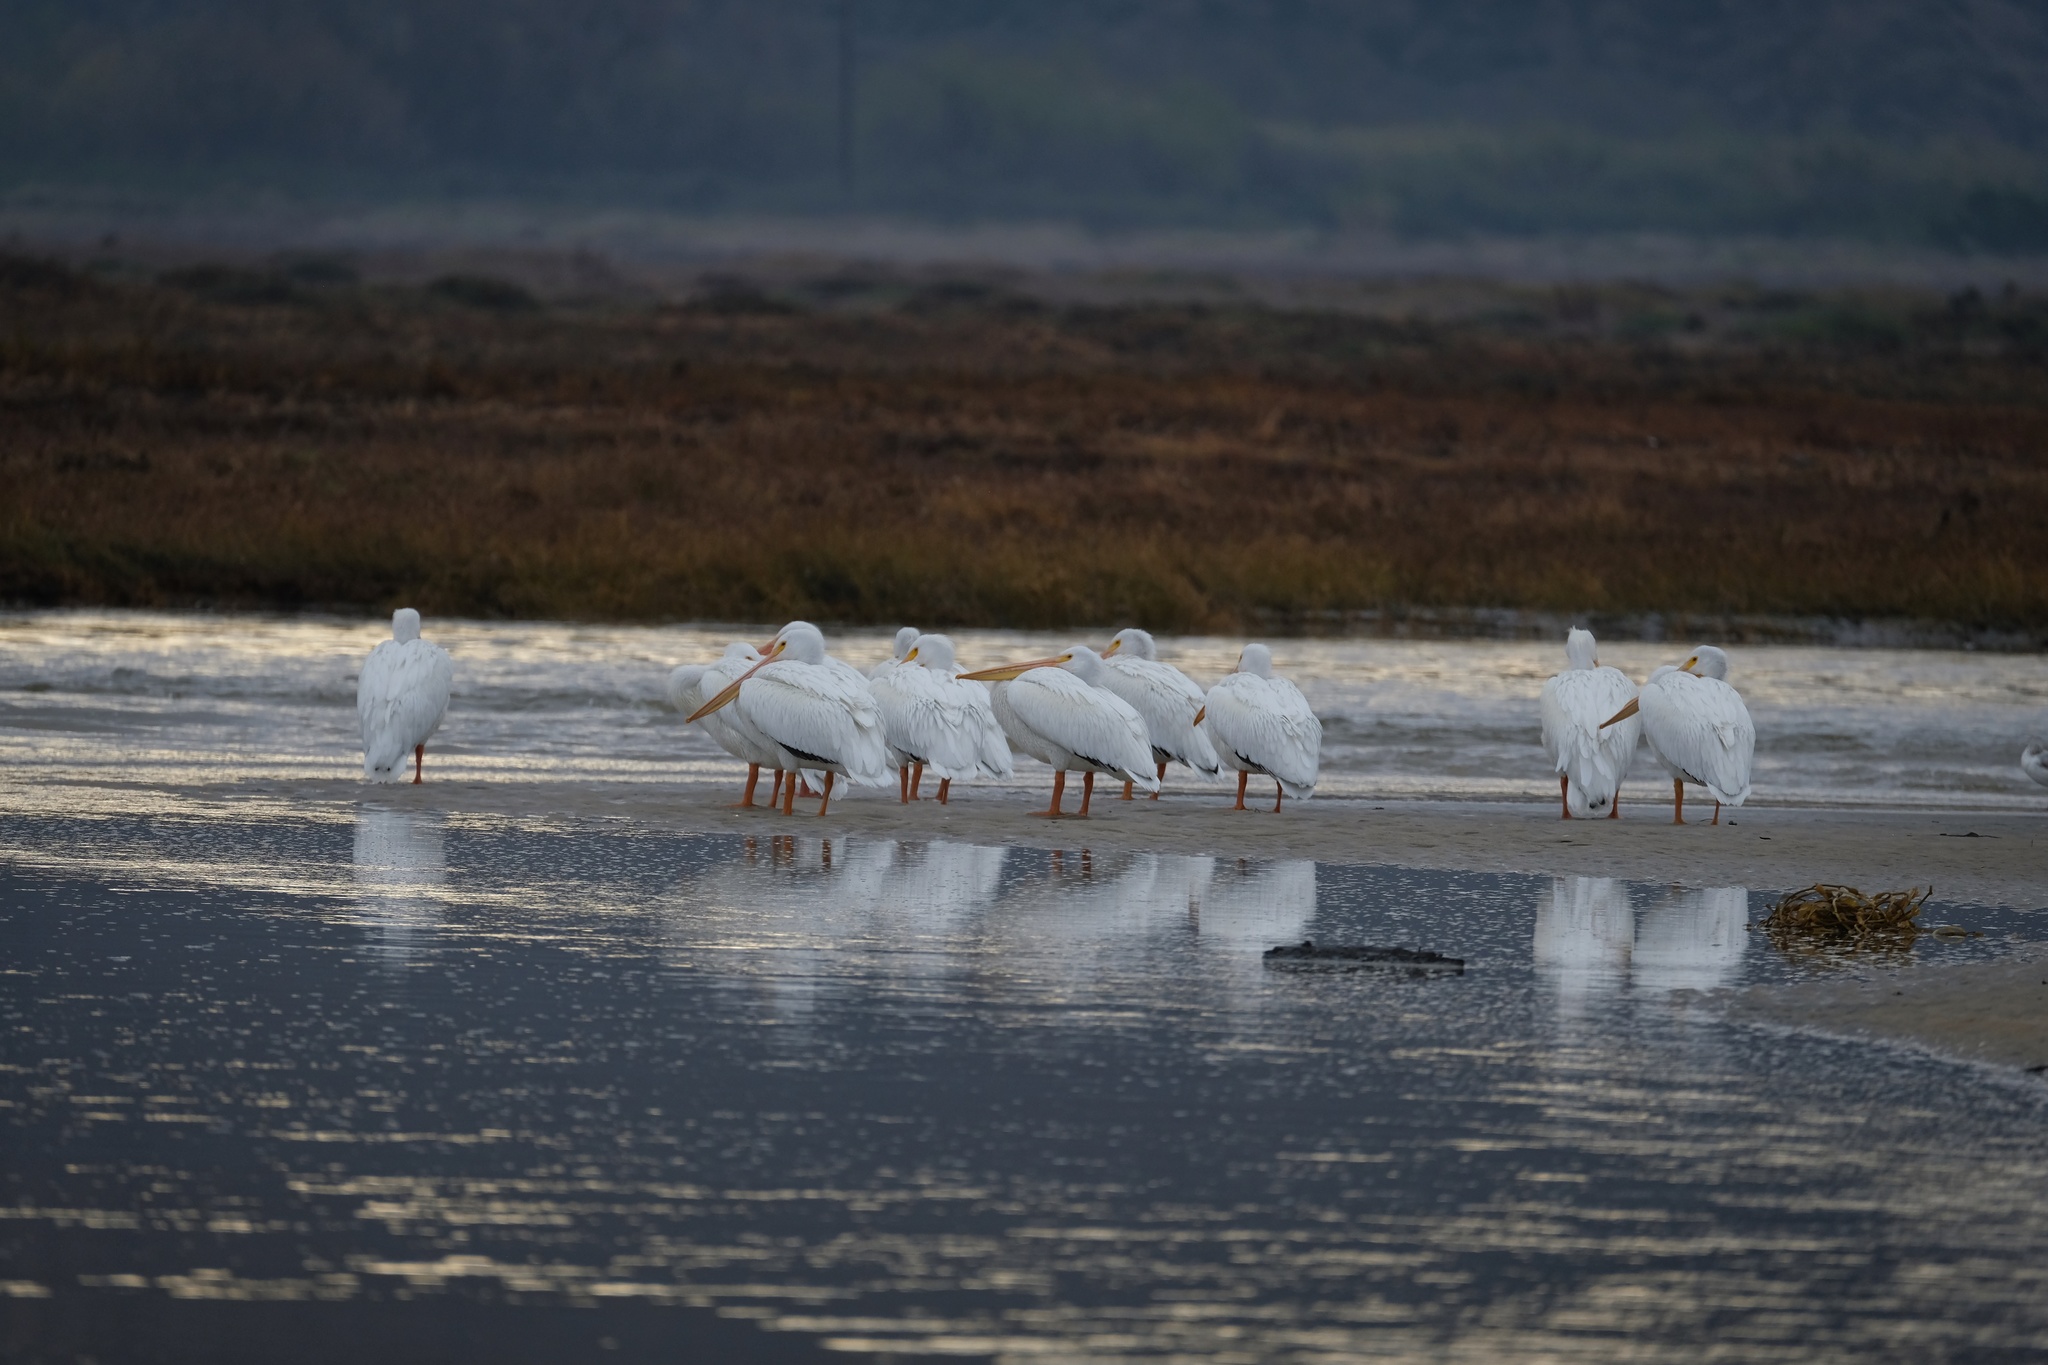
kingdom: Animalia
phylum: Chordata
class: Aves
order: Pelecaniformes
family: Pelecanidae
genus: Pelecanus
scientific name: Pelecanus erythrorhynchos
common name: American white pelican
